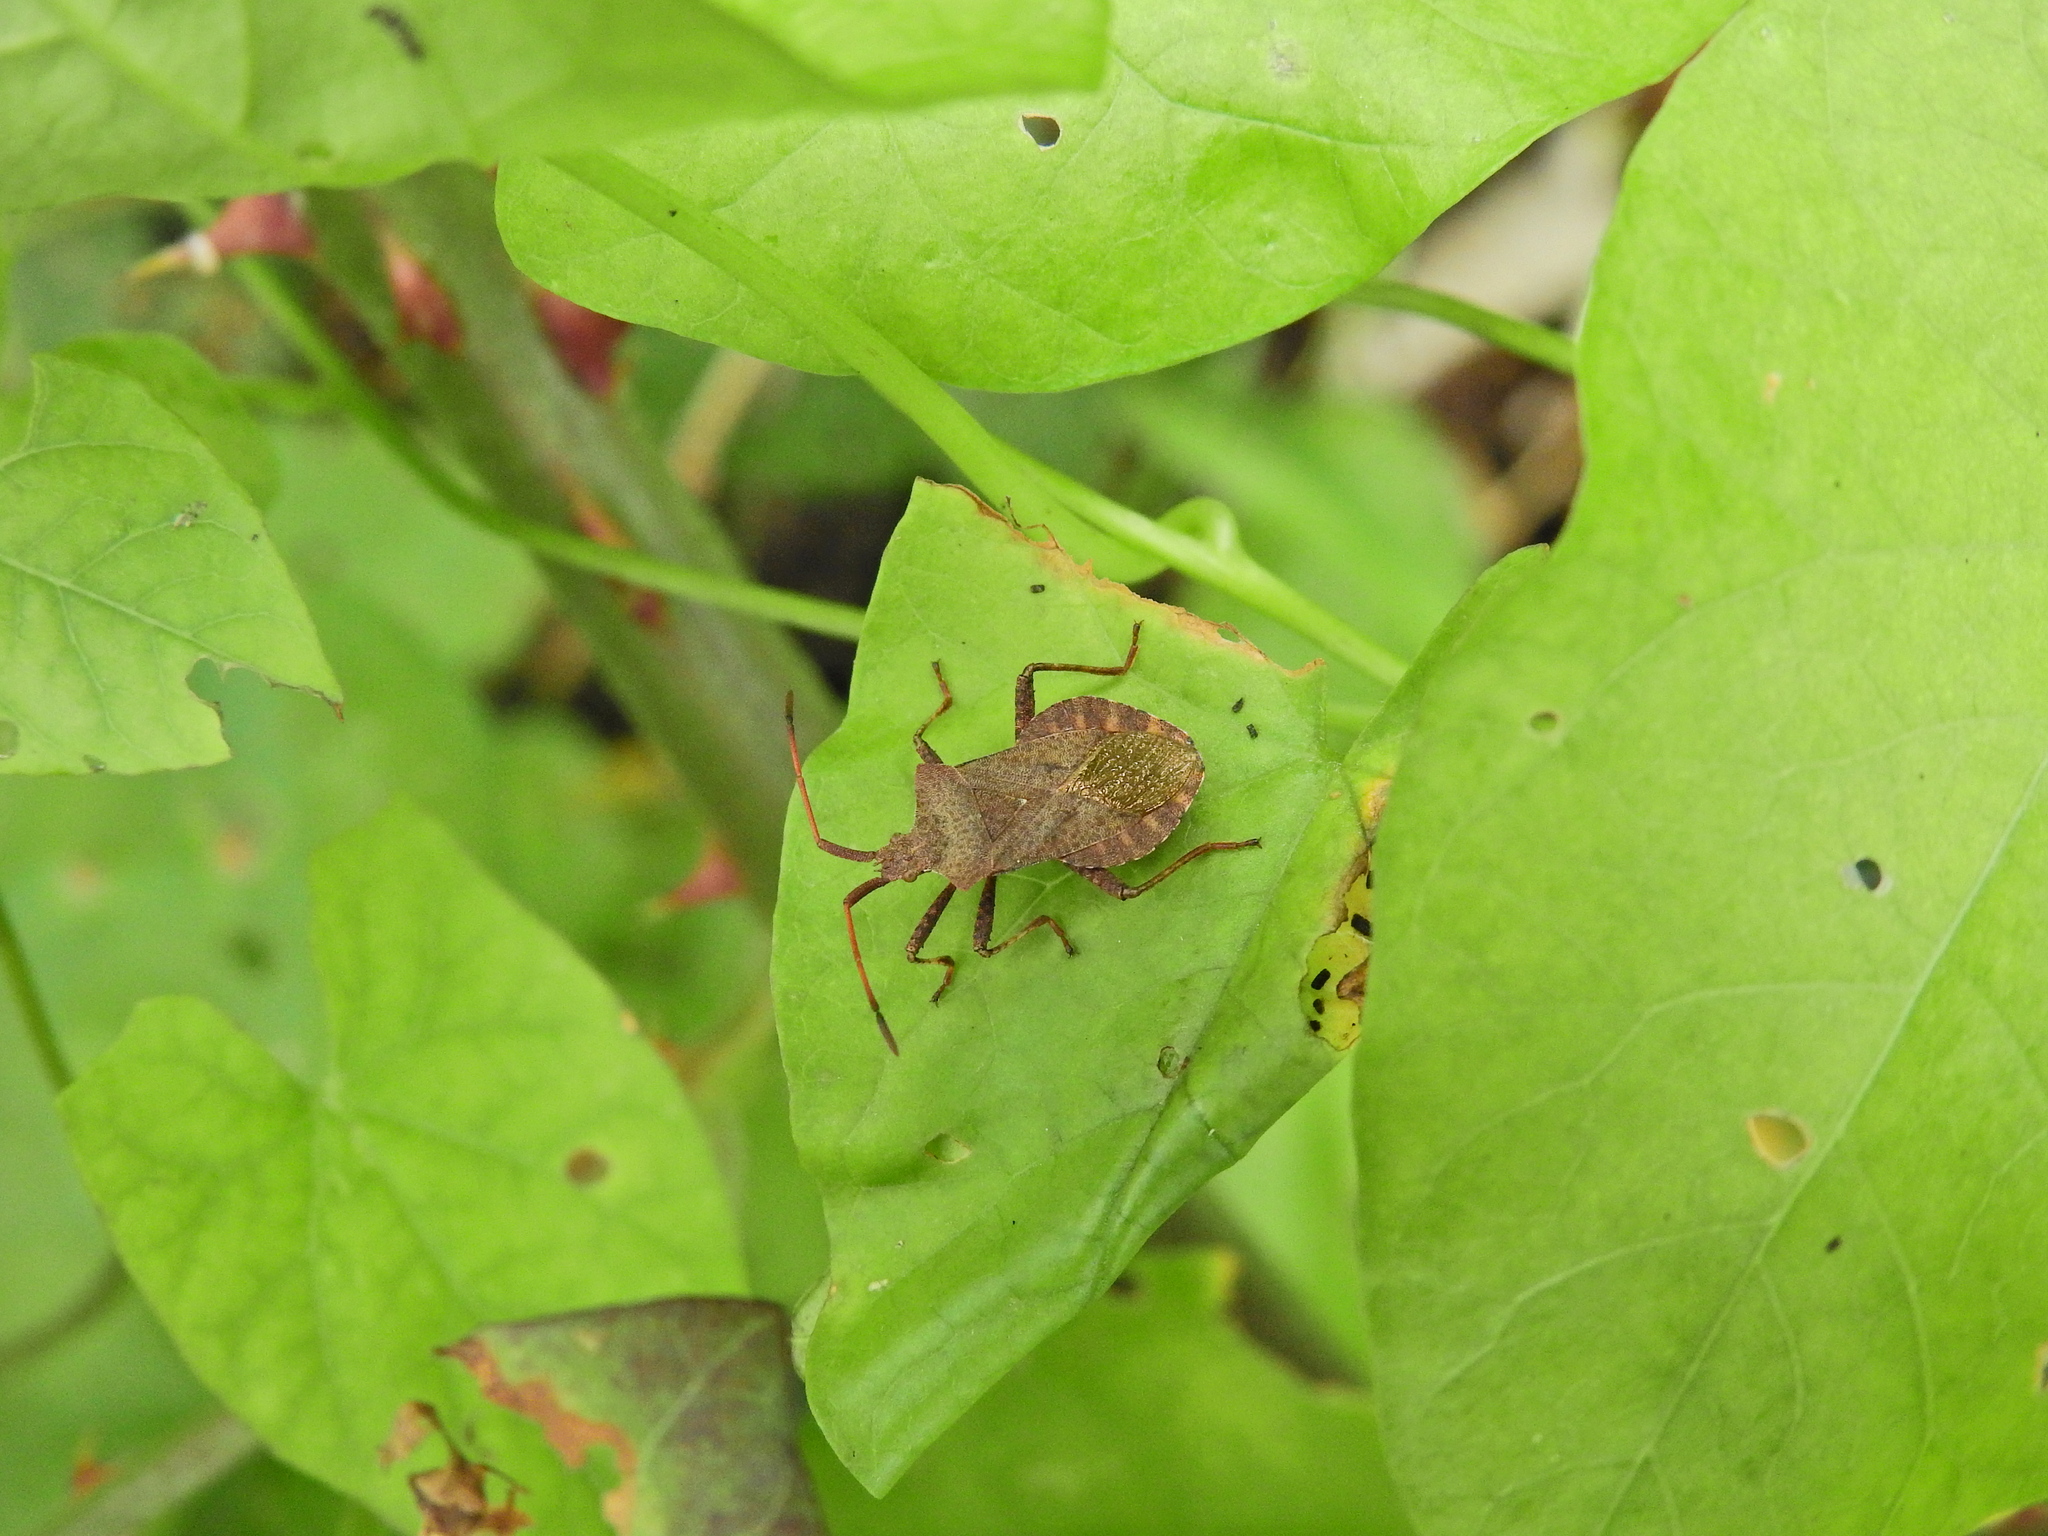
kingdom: Animalia
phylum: Arthropoda
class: Insecta
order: Hemiptera
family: Coreidae
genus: Coreus
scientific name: Coreus marginatus
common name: Dock bug
